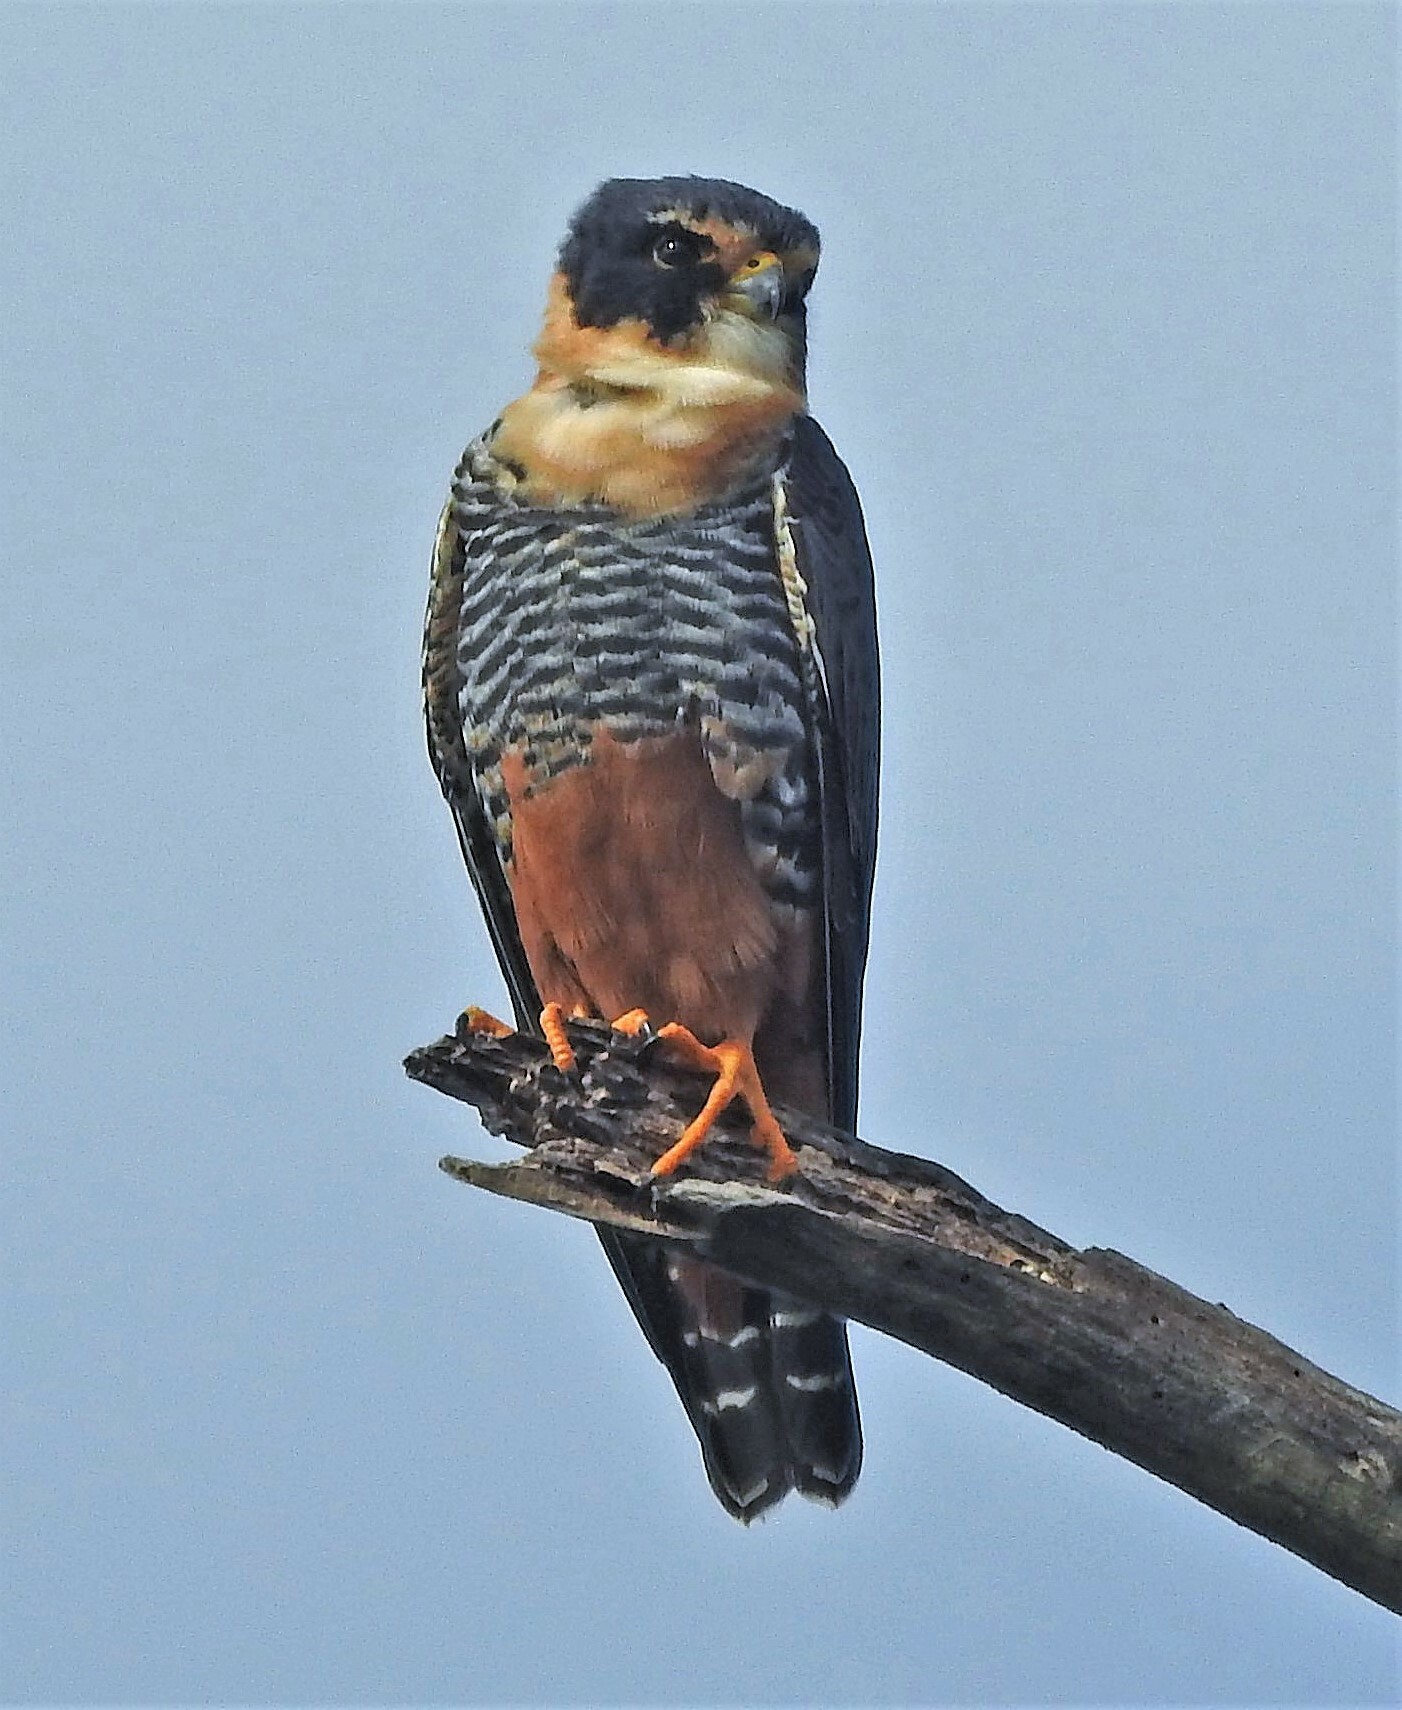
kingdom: Animalia
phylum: Chordata
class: Aves
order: Falconiformes
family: Falconidae
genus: Falco
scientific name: Falco rufigularis
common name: Bat falcon
